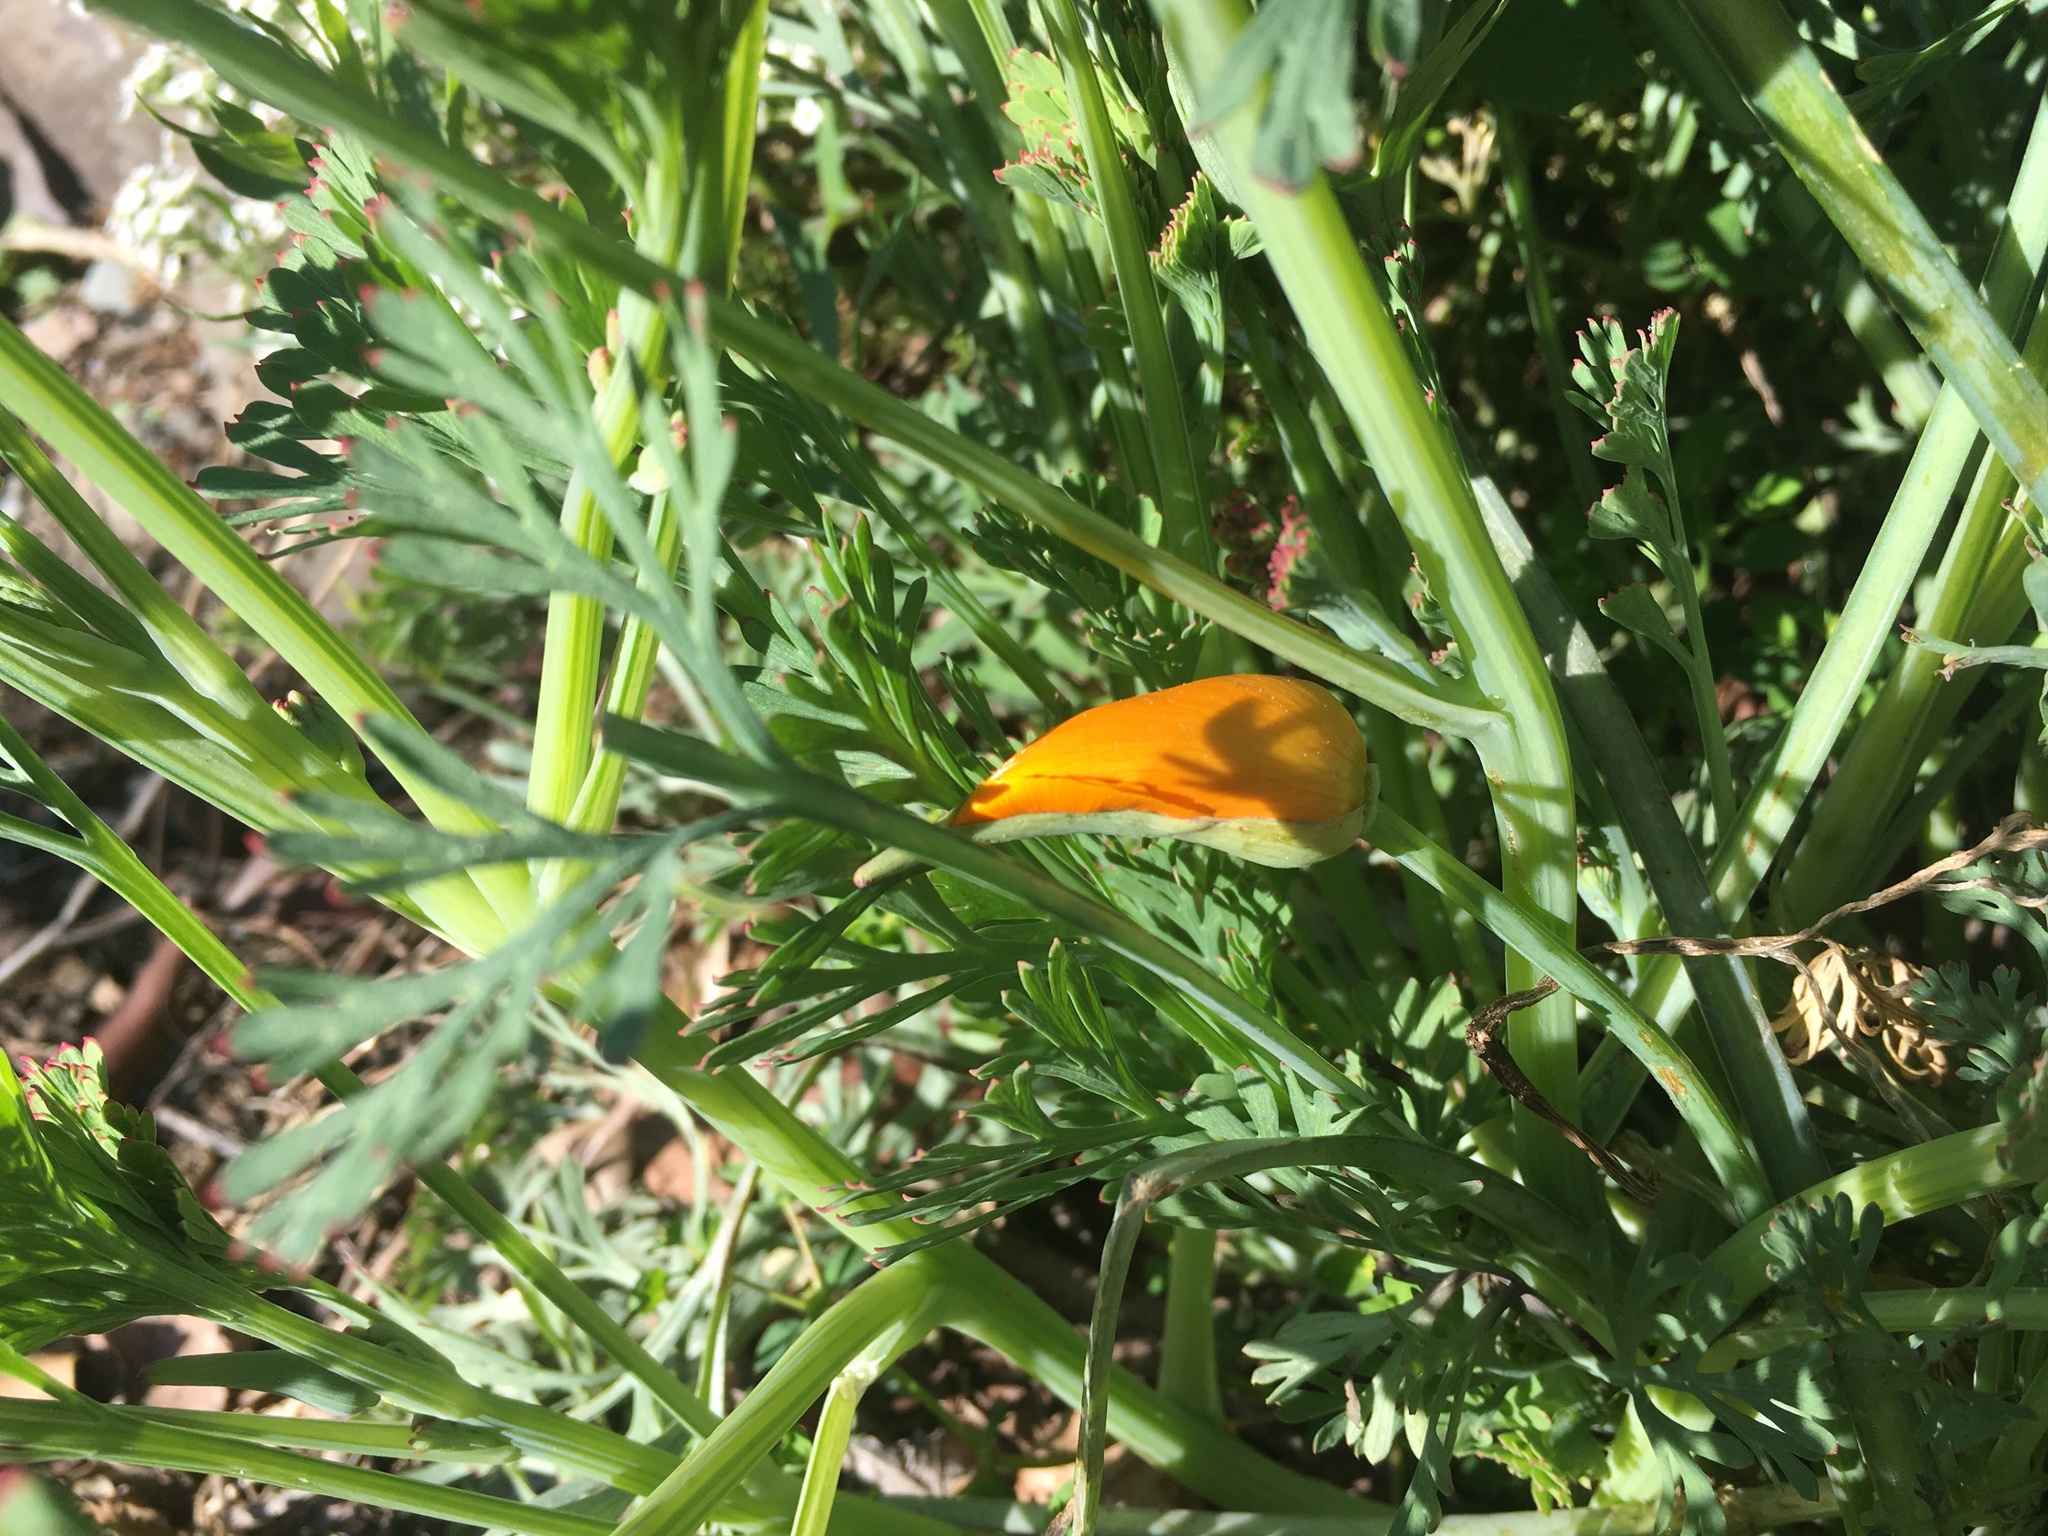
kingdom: Plantae
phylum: Tracheophyta
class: Magnoliopsida
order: Ranunculales
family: Papaveraceae
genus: Eschscholzia
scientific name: Eschscholzia californica
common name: California poppy
